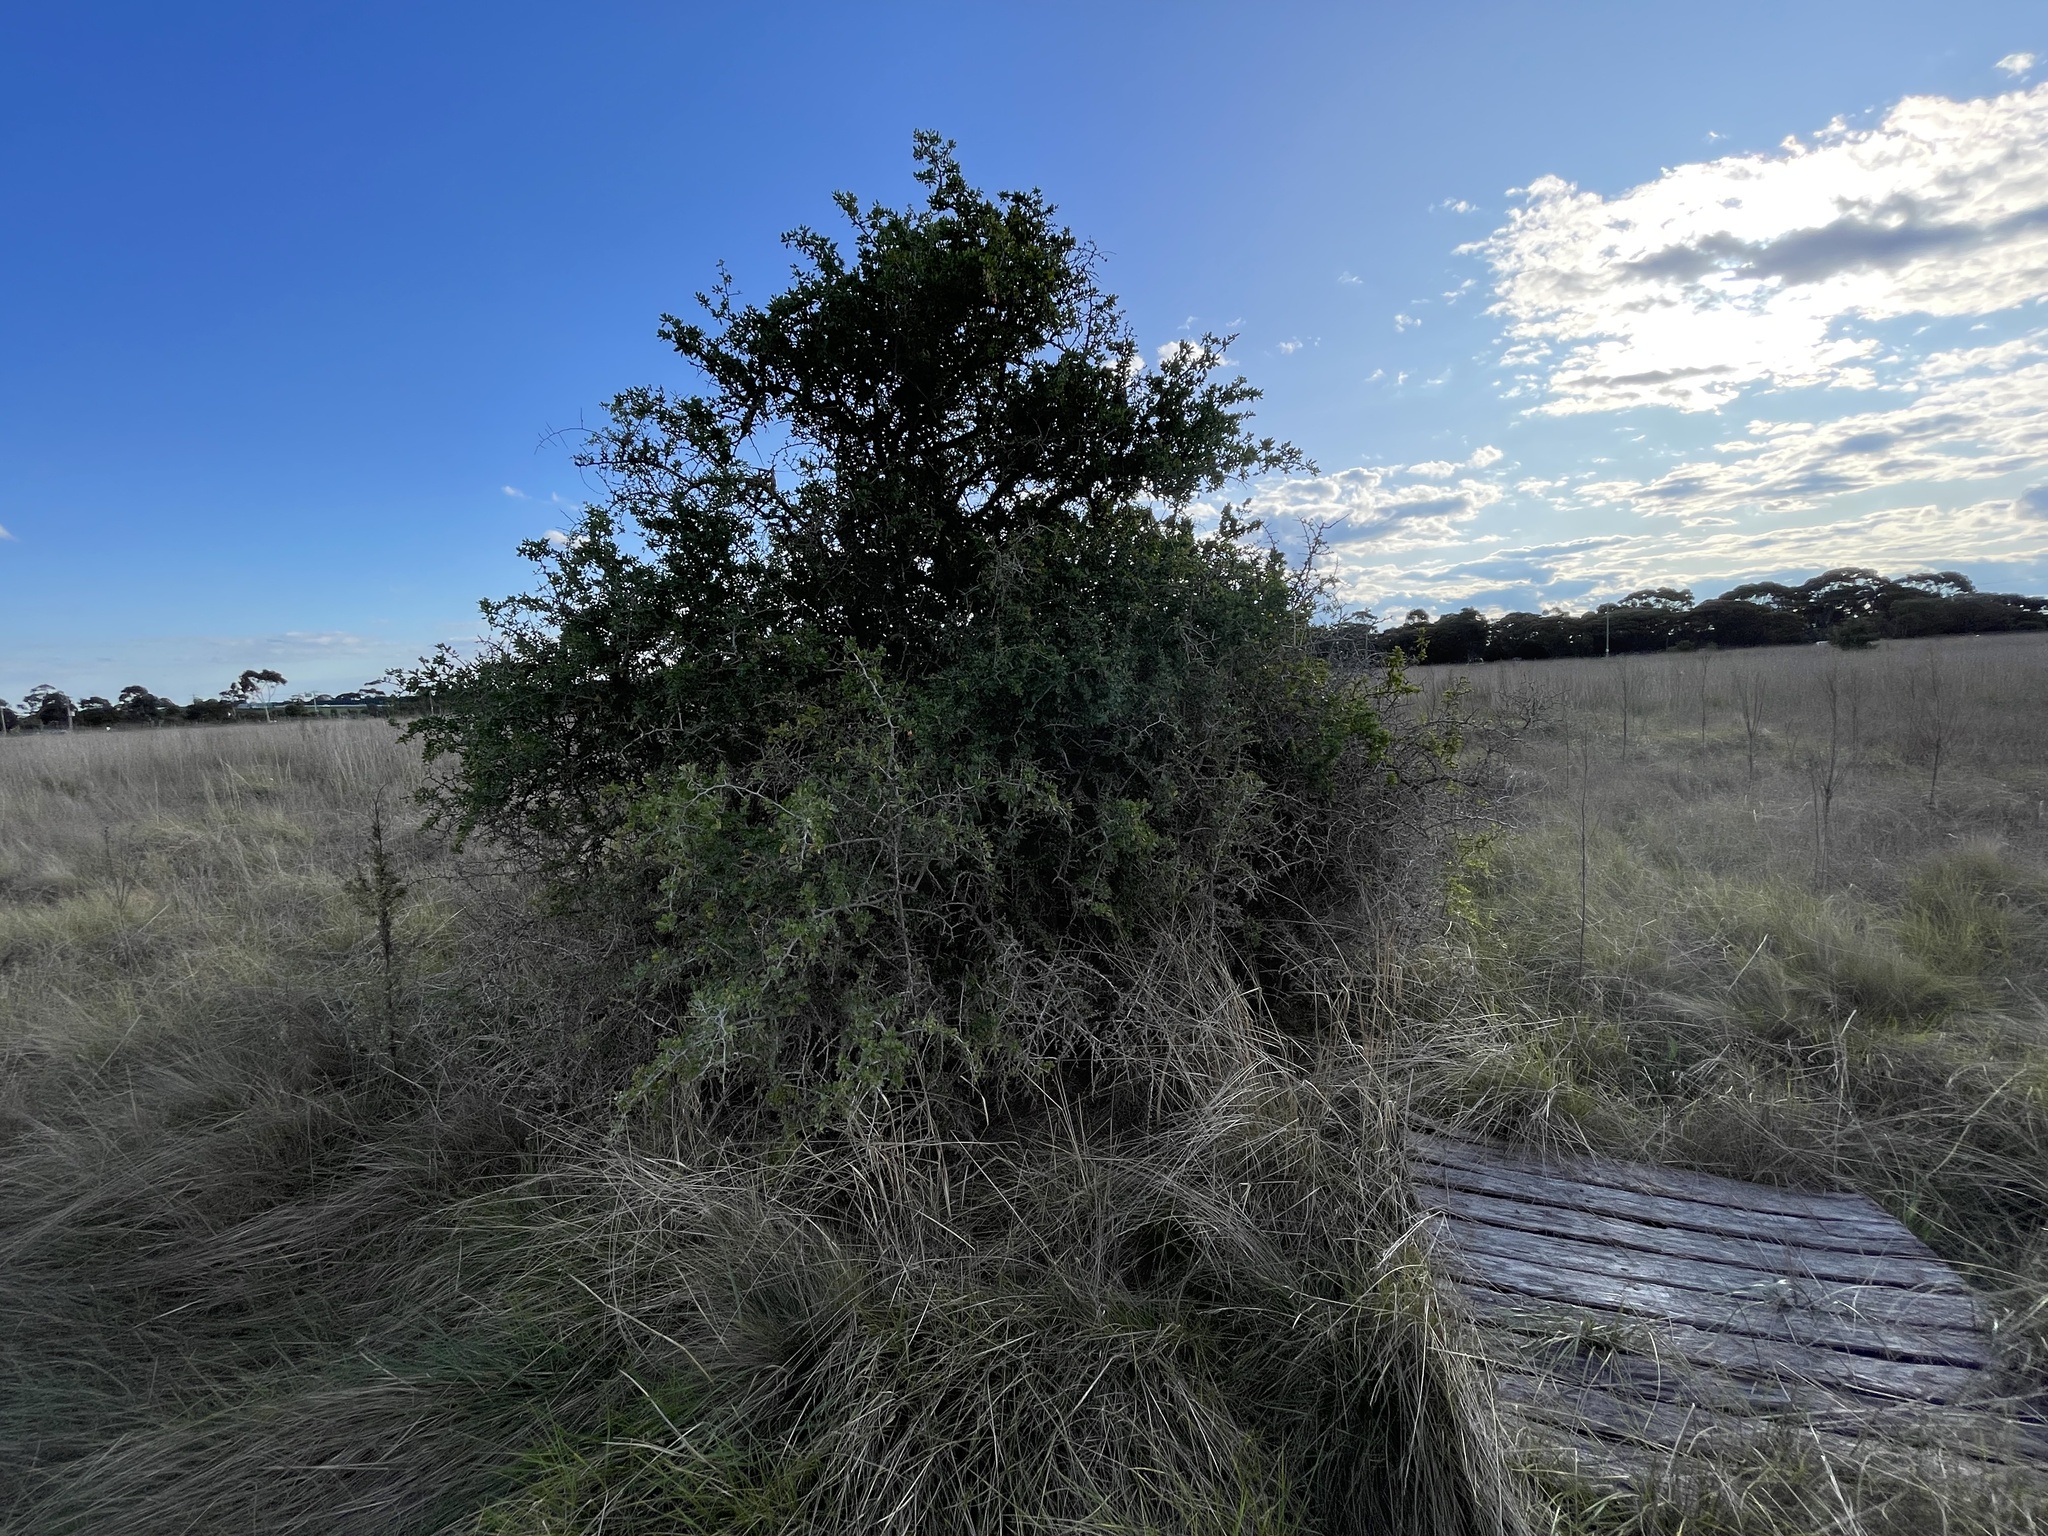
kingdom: Plantae
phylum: Tracheophyta
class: Magnoliopsida
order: Solanales
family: Solanaceae
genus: Lycium
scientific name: Lycium ferocissimum
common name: African boxthorn
